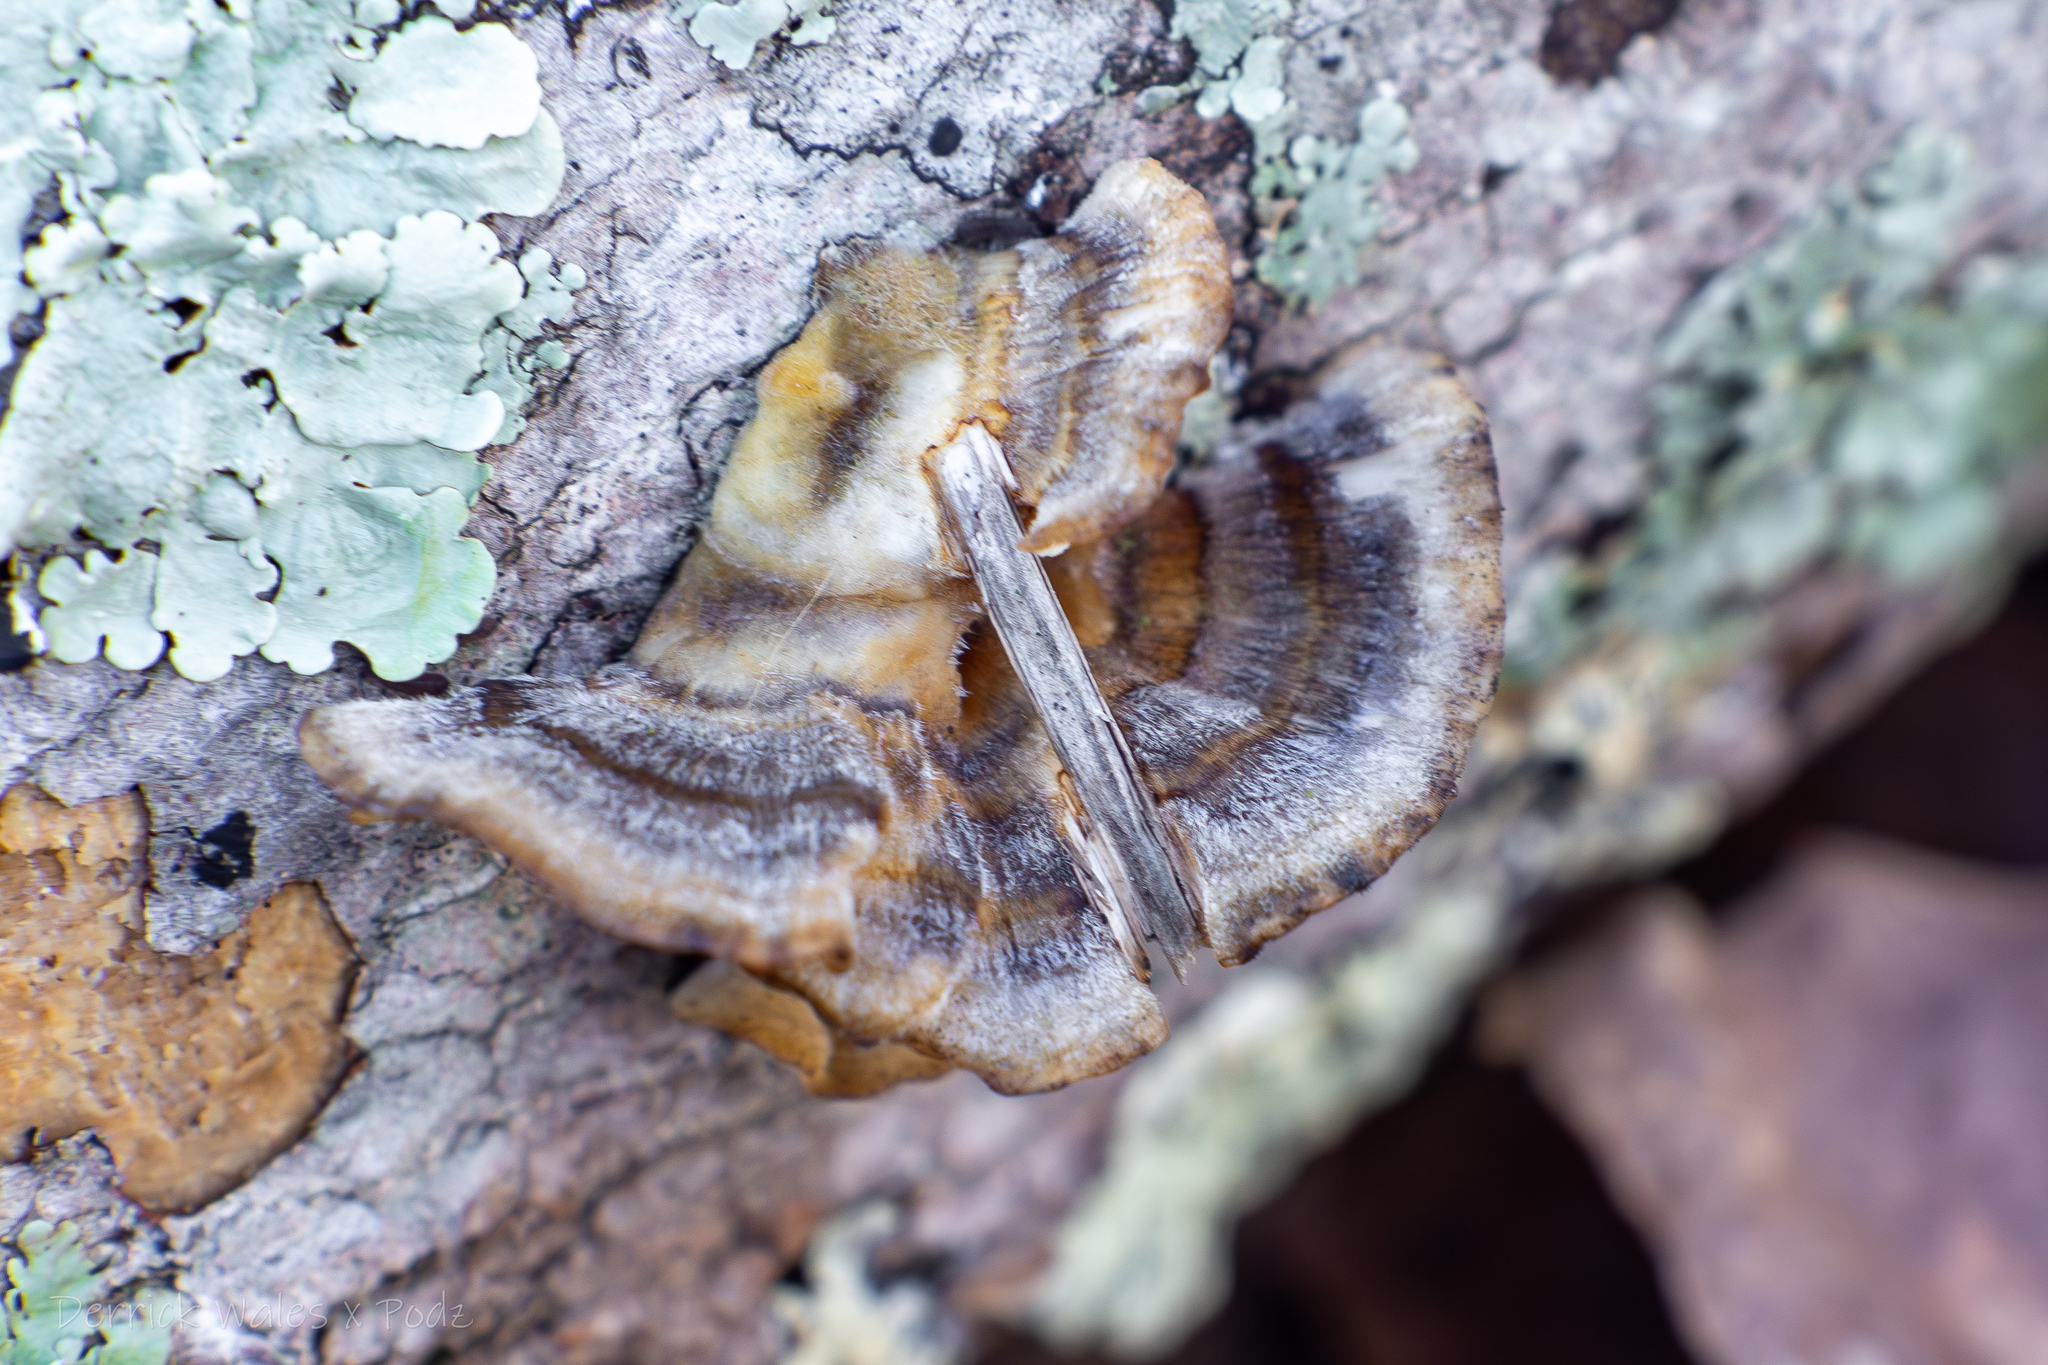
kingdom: Fungi
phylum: Basidiomycota
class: Agaricomycetes
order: Polyporales
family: Polyporaceae
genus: Trametes
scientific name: Trametes versicolor
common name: Turkeytail
